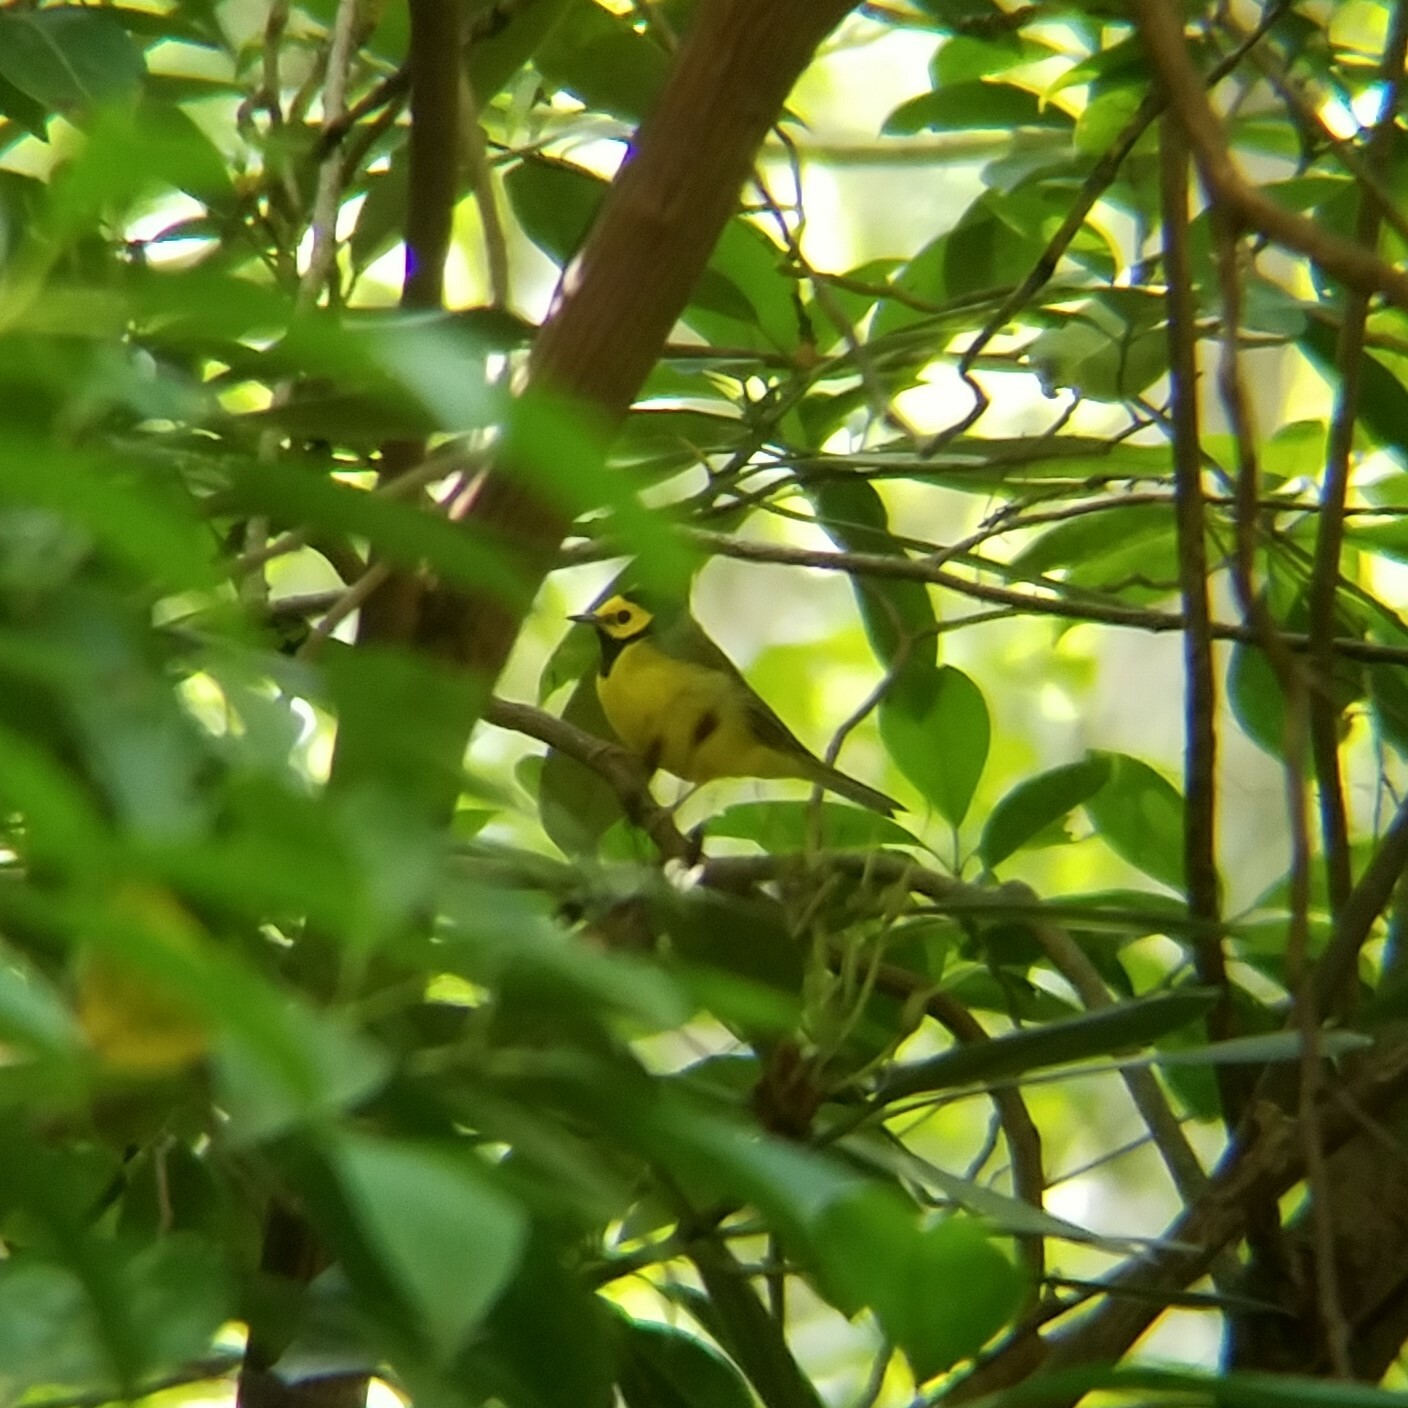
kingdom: Animalia
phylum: Chordata
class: Aves
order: Passeriformes
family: Parulidae
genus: Setophaga
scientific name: Setophaga citrina
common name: Hooded warbler
